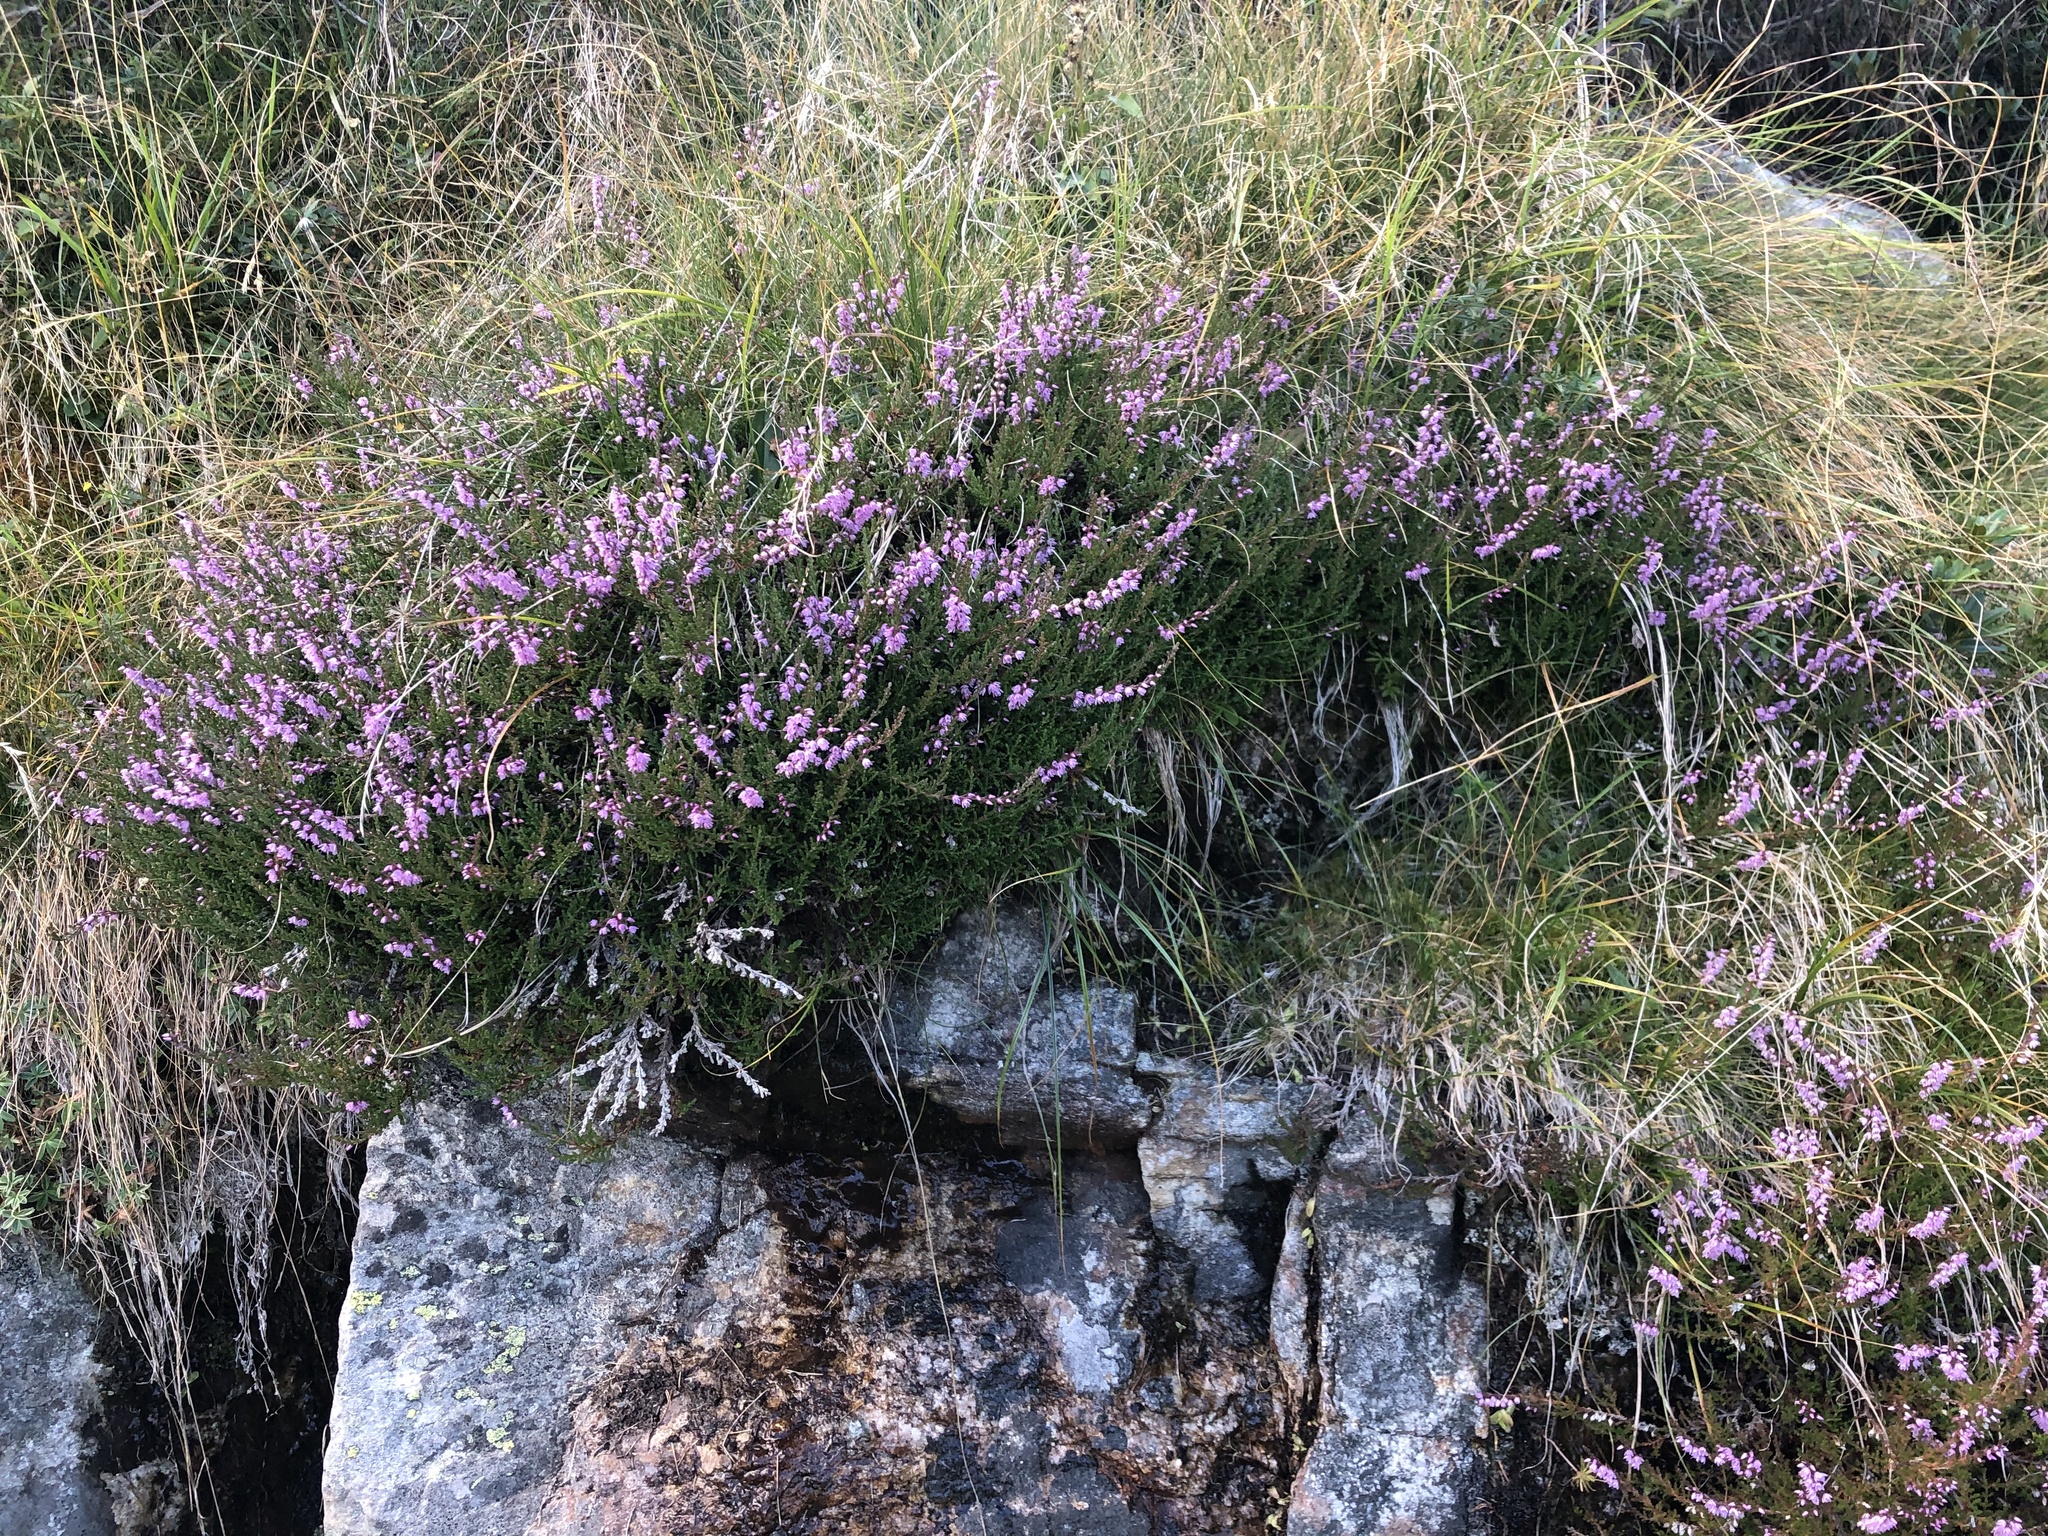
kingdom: Plantae
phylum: Tracheophyta
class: Magnoliopsida
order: Ericales
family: Ericaceae
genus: Calluna
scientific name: Calluna vulgaris
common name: Heather
